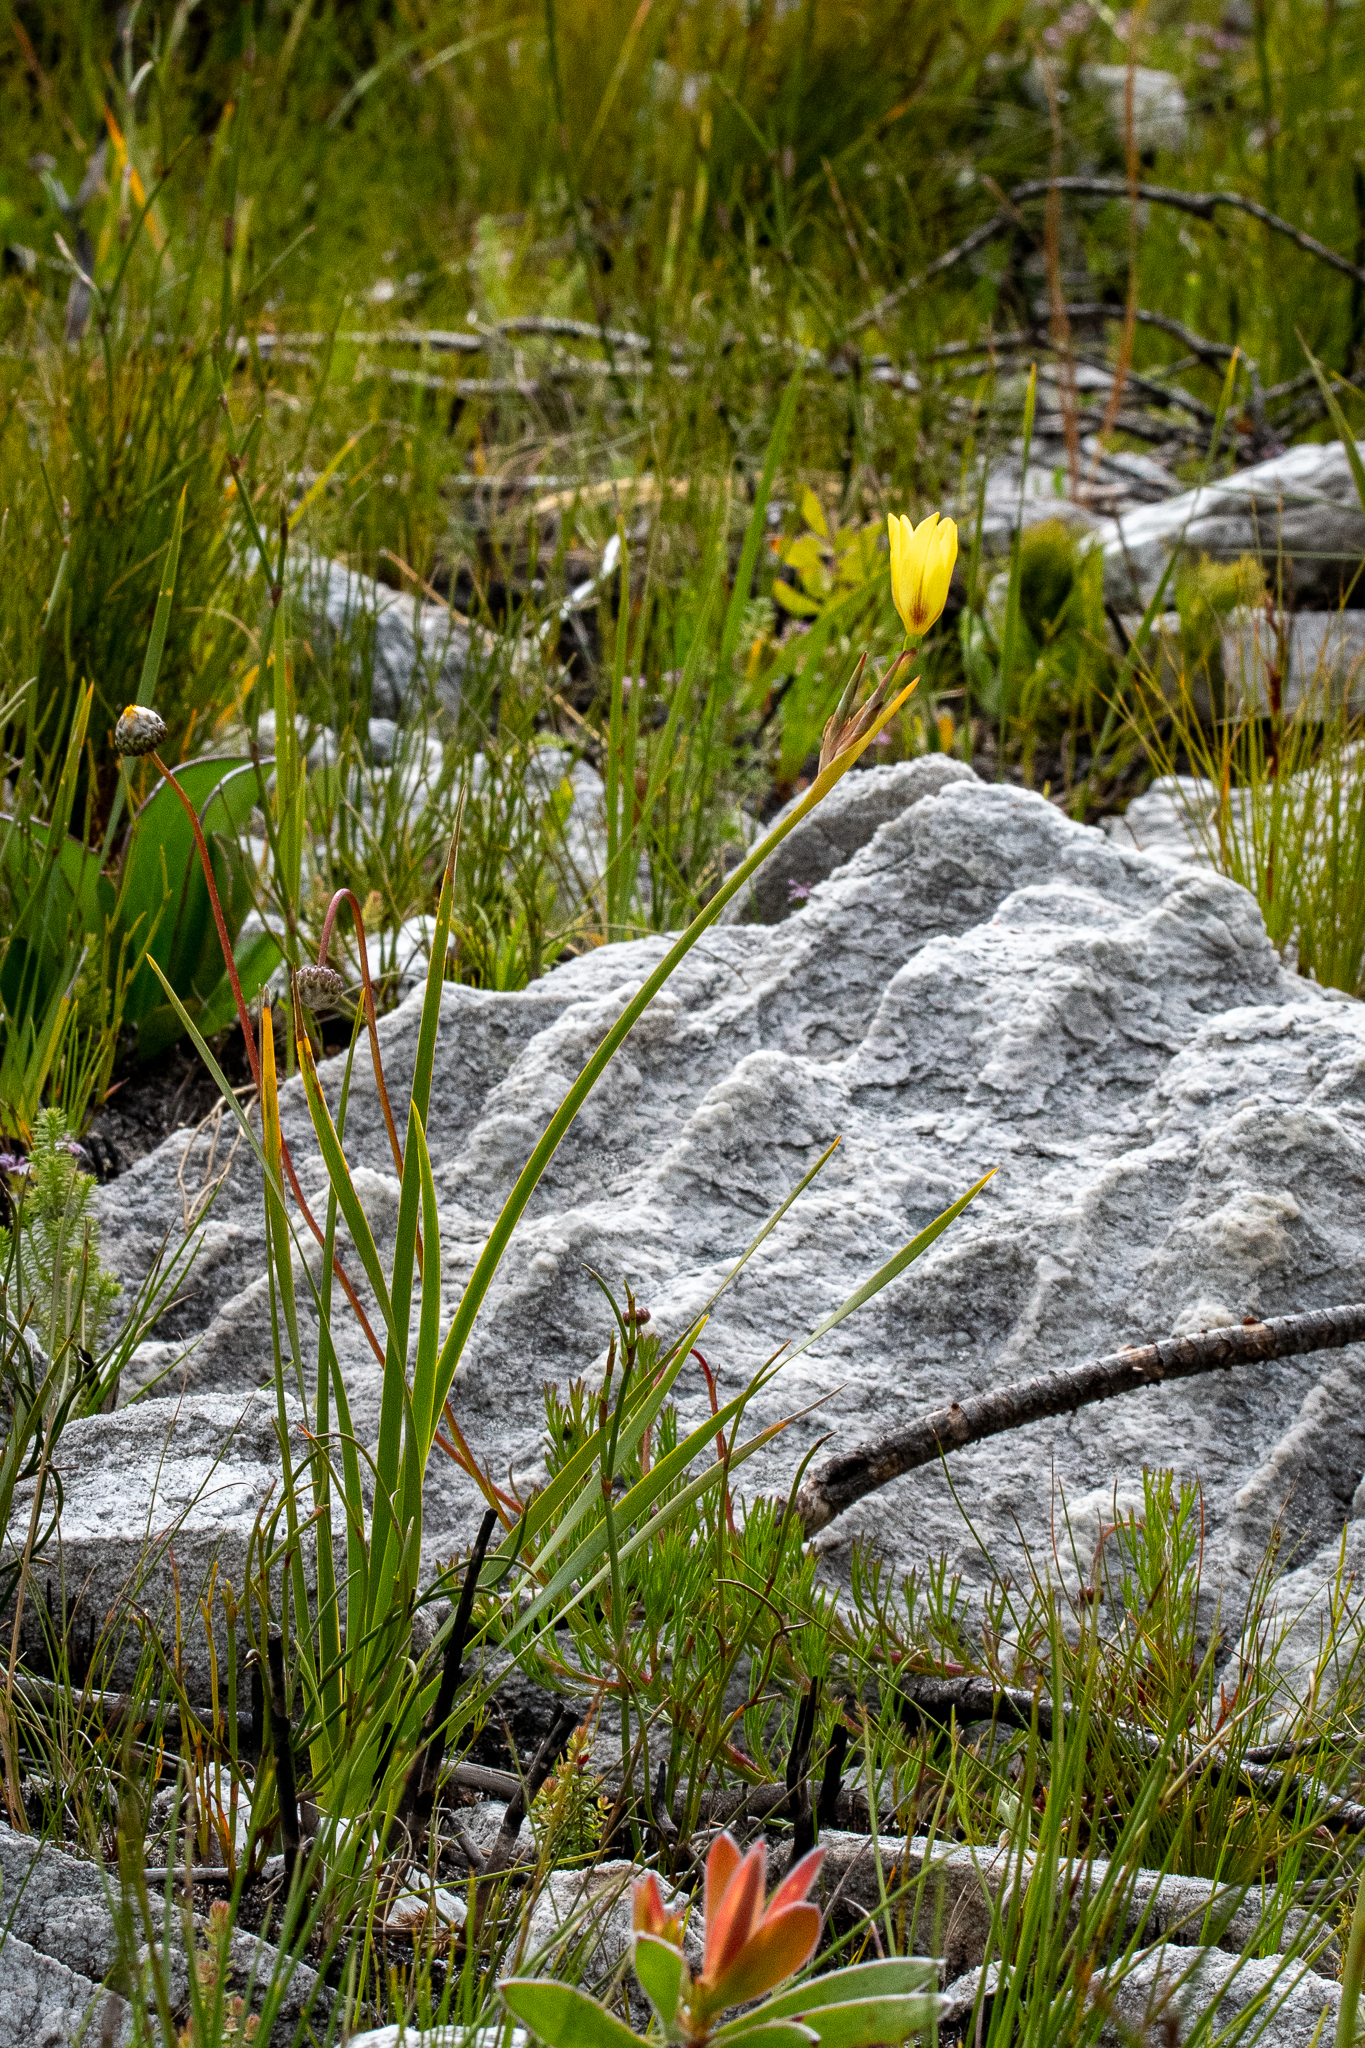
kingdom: Plantae
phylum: Tracheophyta
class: Liliopsida
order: Asparagales
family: Iridaceae
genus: Bobartia
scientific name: Bobartia gladiata
